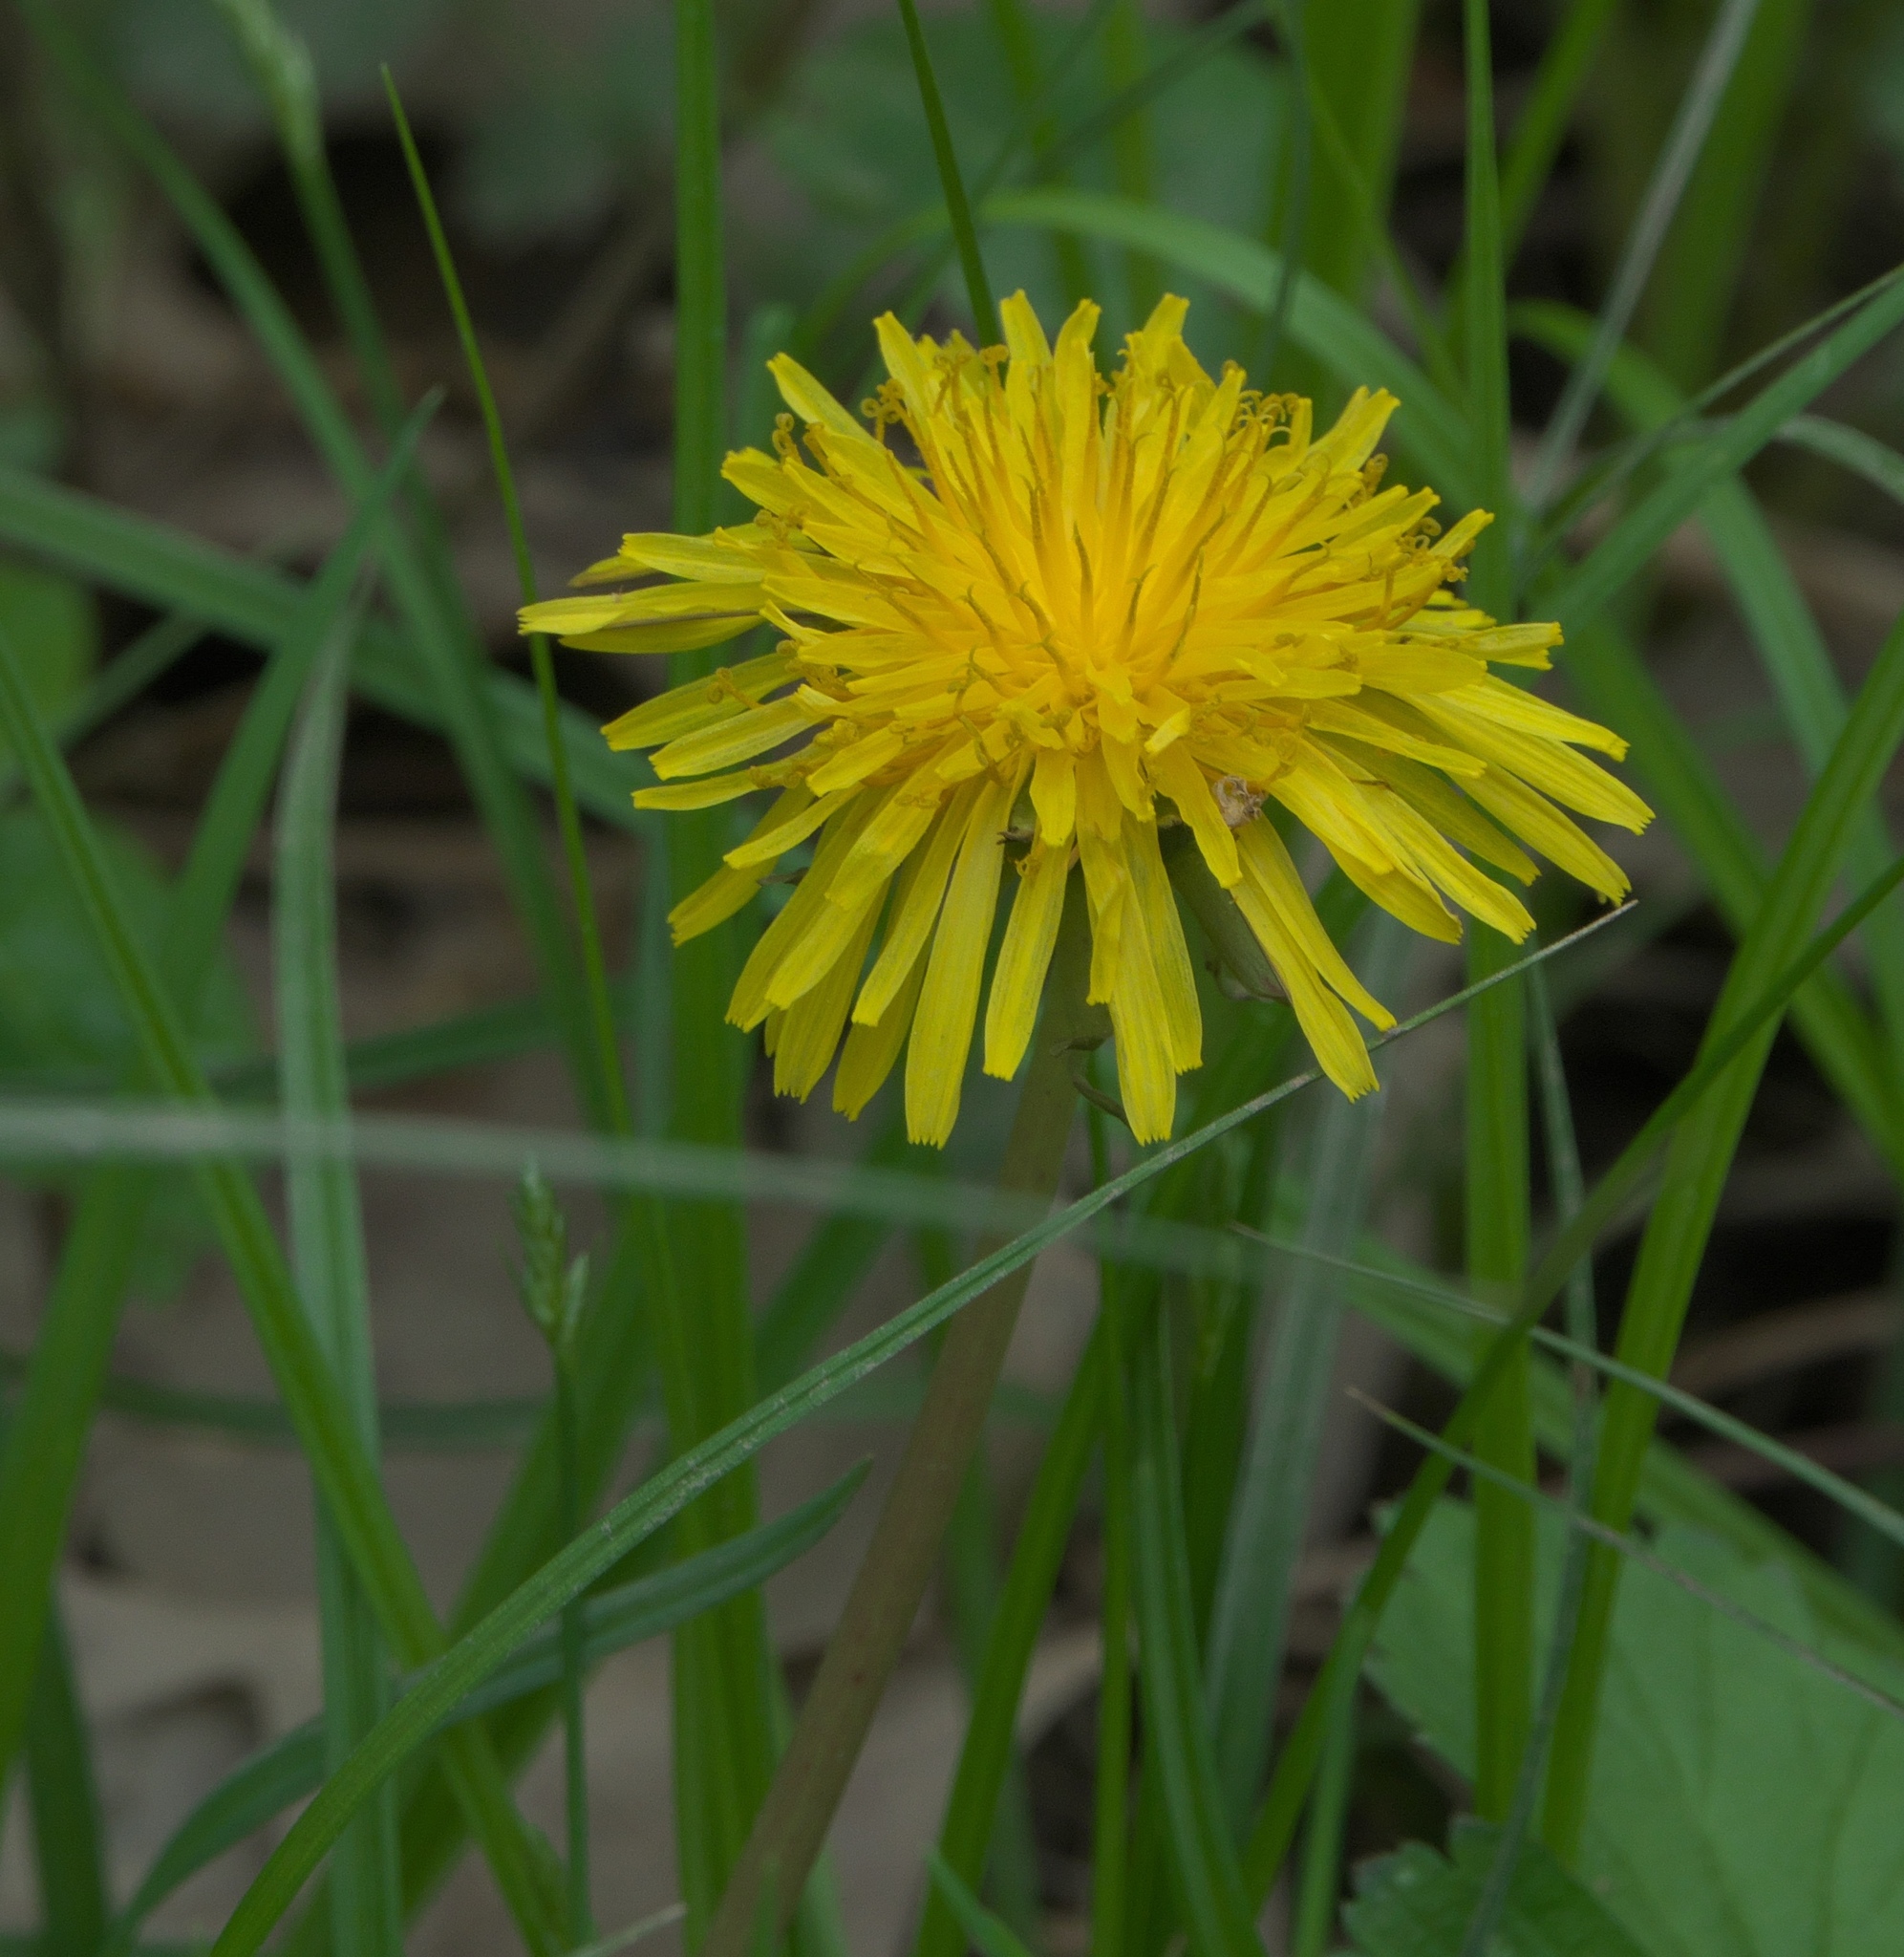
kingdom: Plantae
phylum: Tracheophyta
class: Magnoliopsida
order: Asterales
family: Asteraceae
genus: Taraxacum
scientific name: Taraxacum
